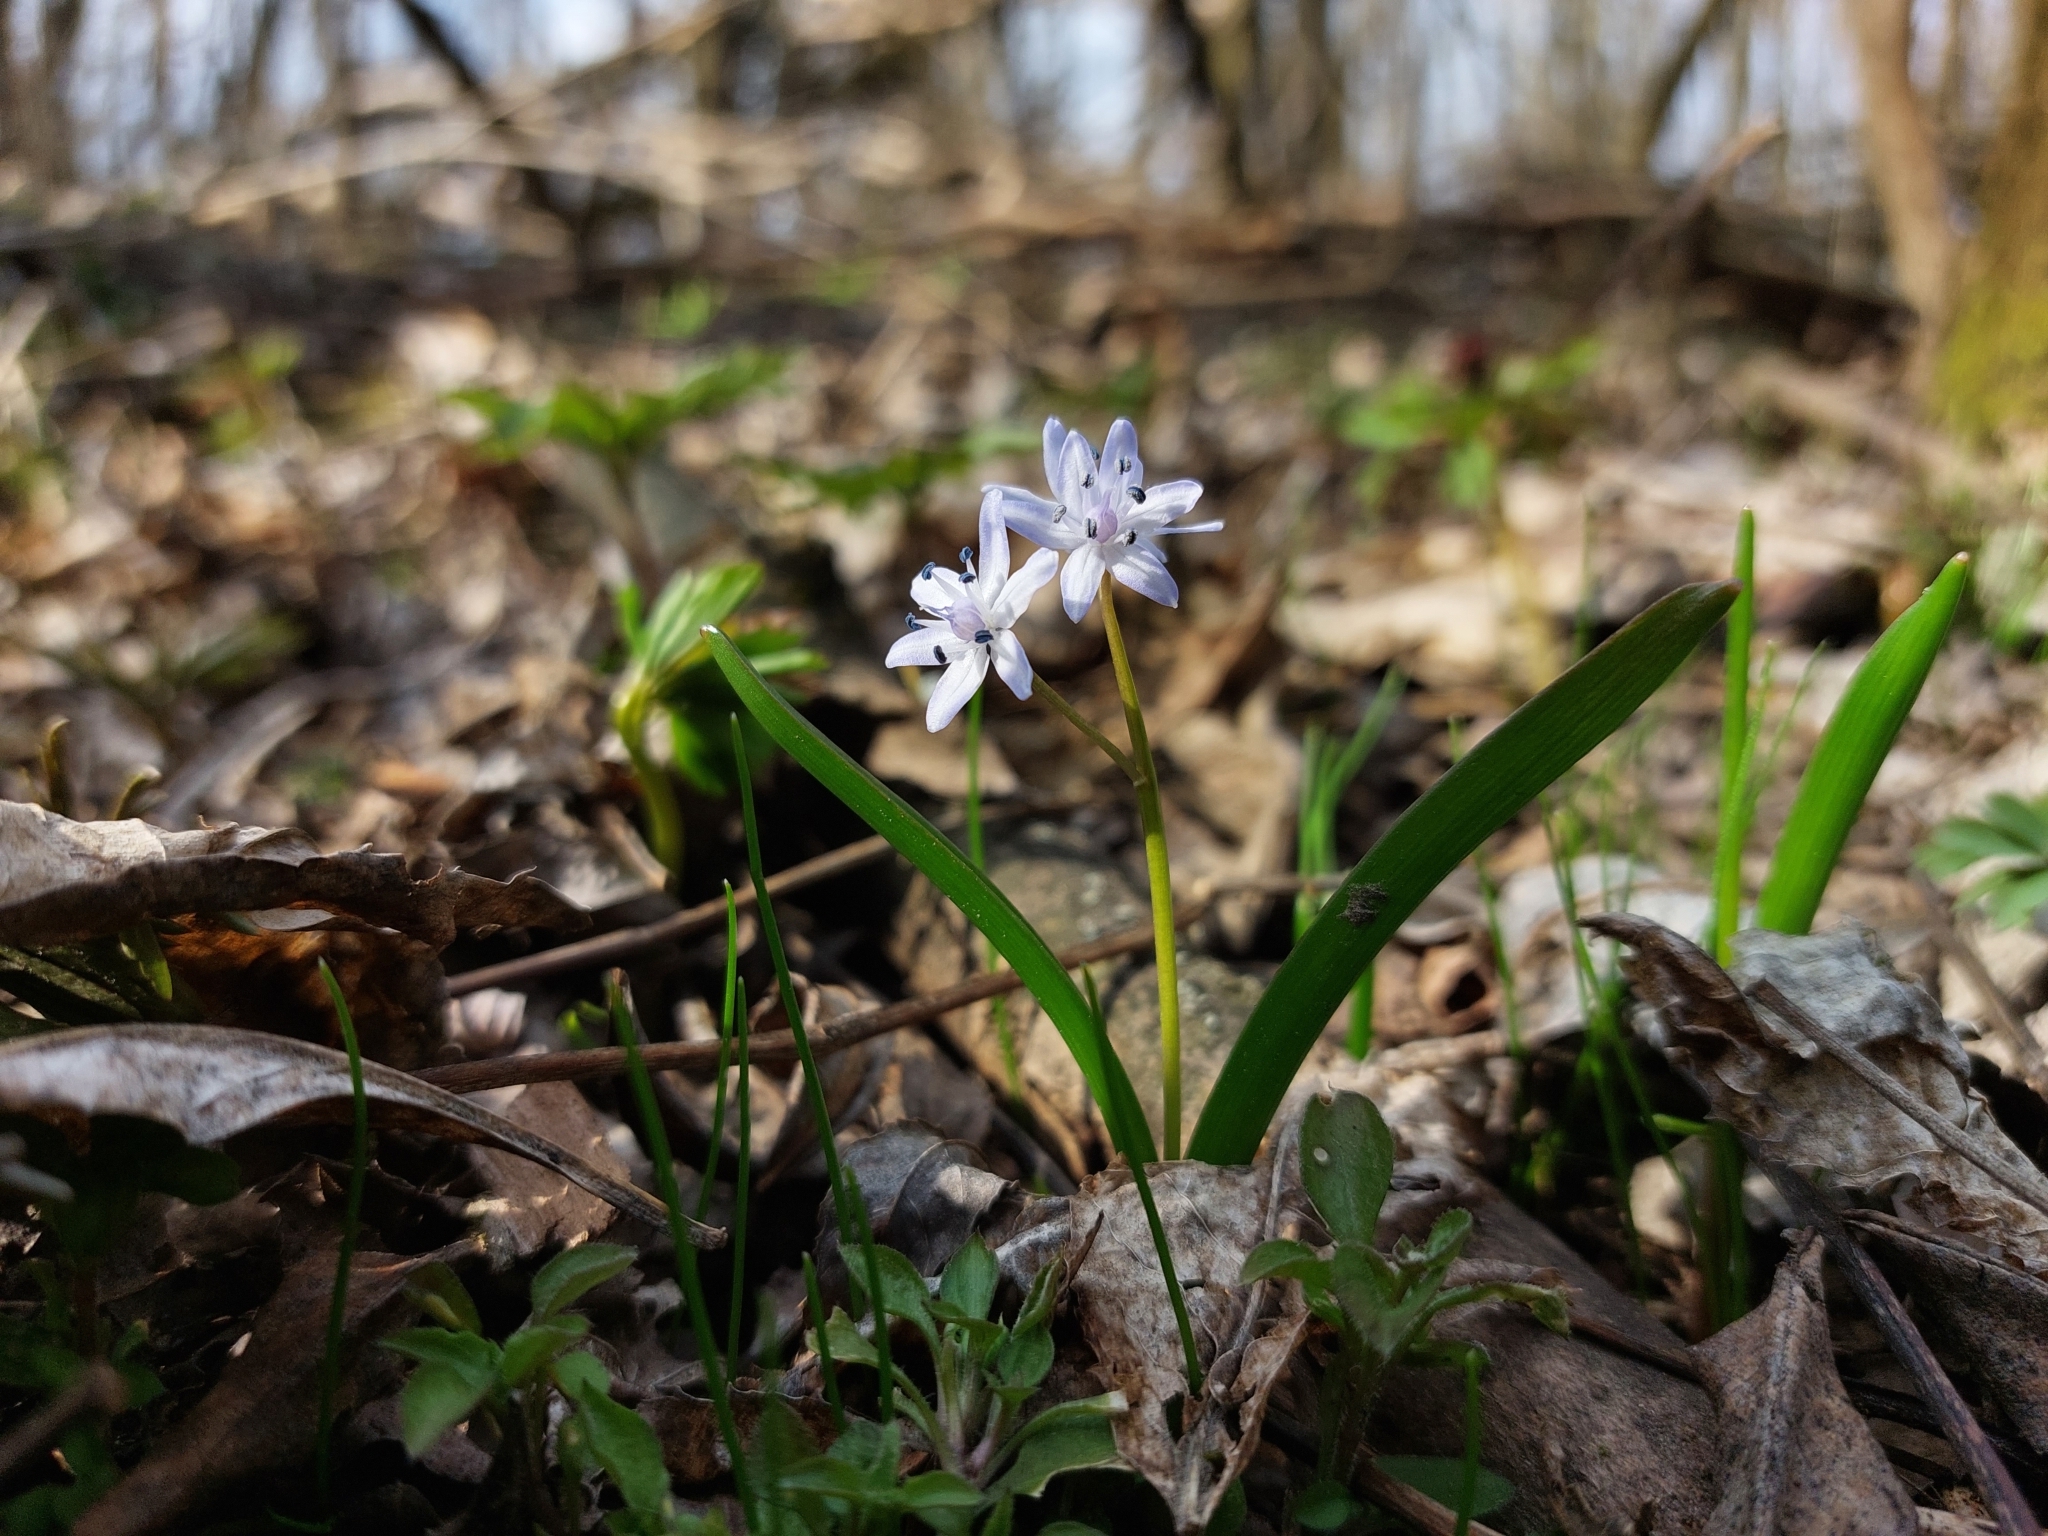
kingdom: Plantae
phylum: Tracheophyta
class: Liliopsida
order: Asparagales
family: Asparagaceae
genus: Scilla
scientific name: Scilla bifolia
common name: Alpine squill
